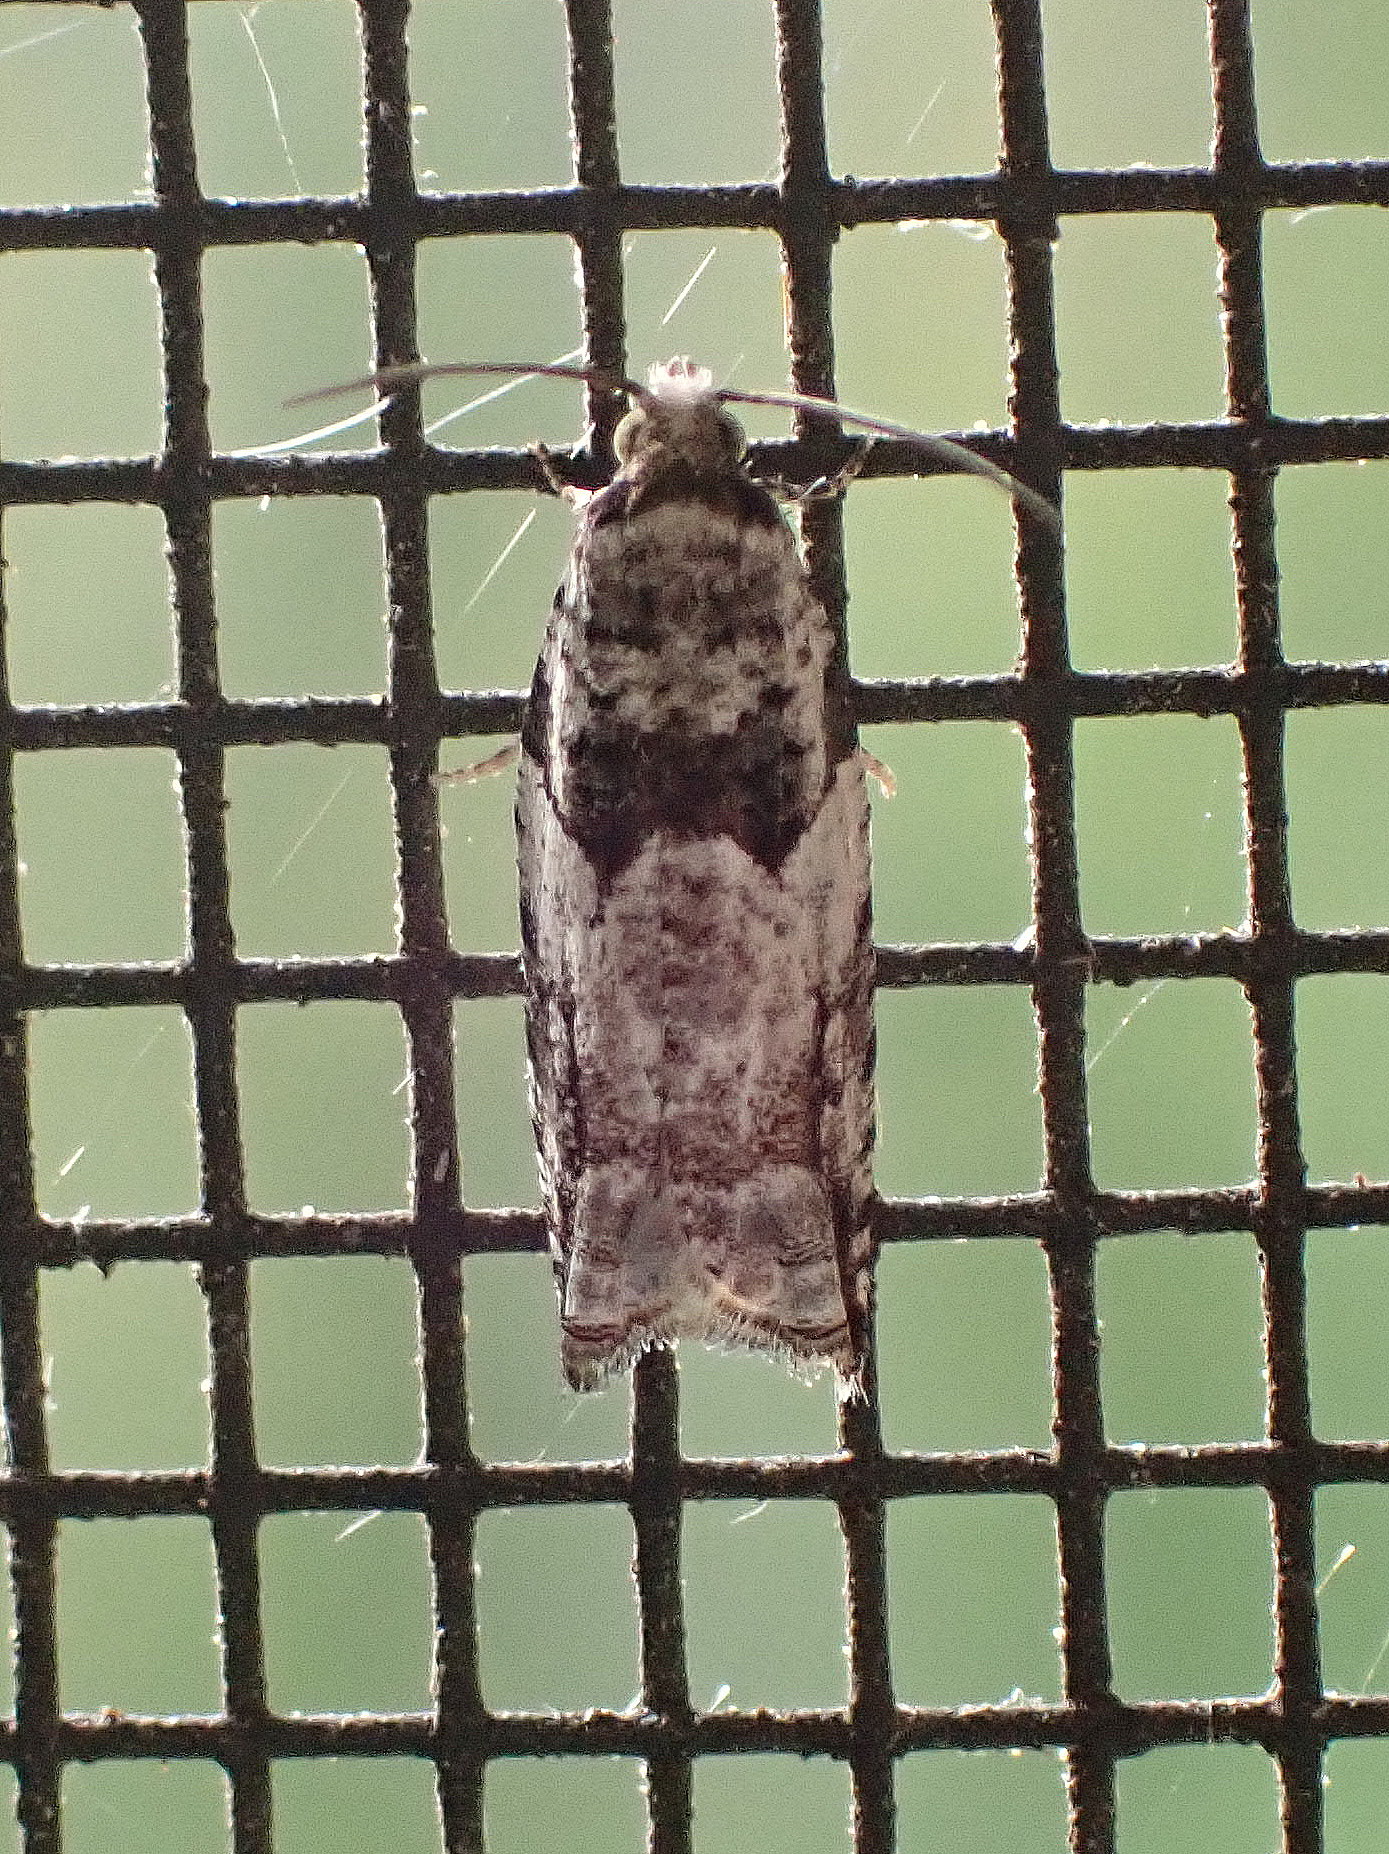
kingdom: Animalia
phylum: Arthropoda
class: Insecta
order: Lepidoptera
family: Tortricidae
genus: Rhopobota
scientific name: Rhopobota dietziana
